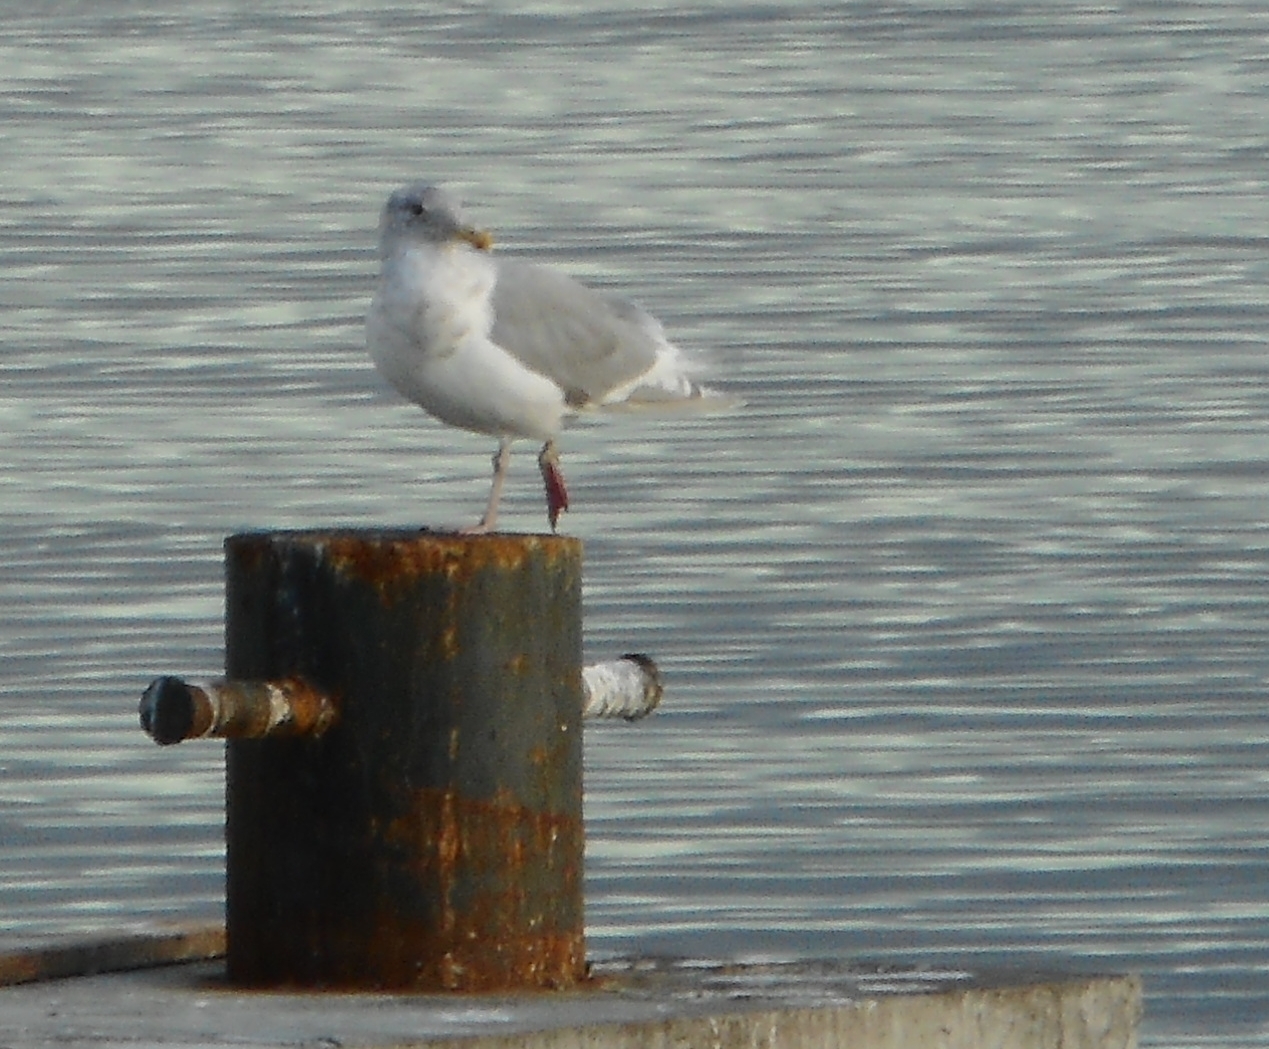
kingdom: Animalia
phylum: Chordata
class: Aves
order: Charadriiformes
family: Laridae
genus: Larus
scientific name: Larus glaucescens
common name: Glaucous-winged gull
